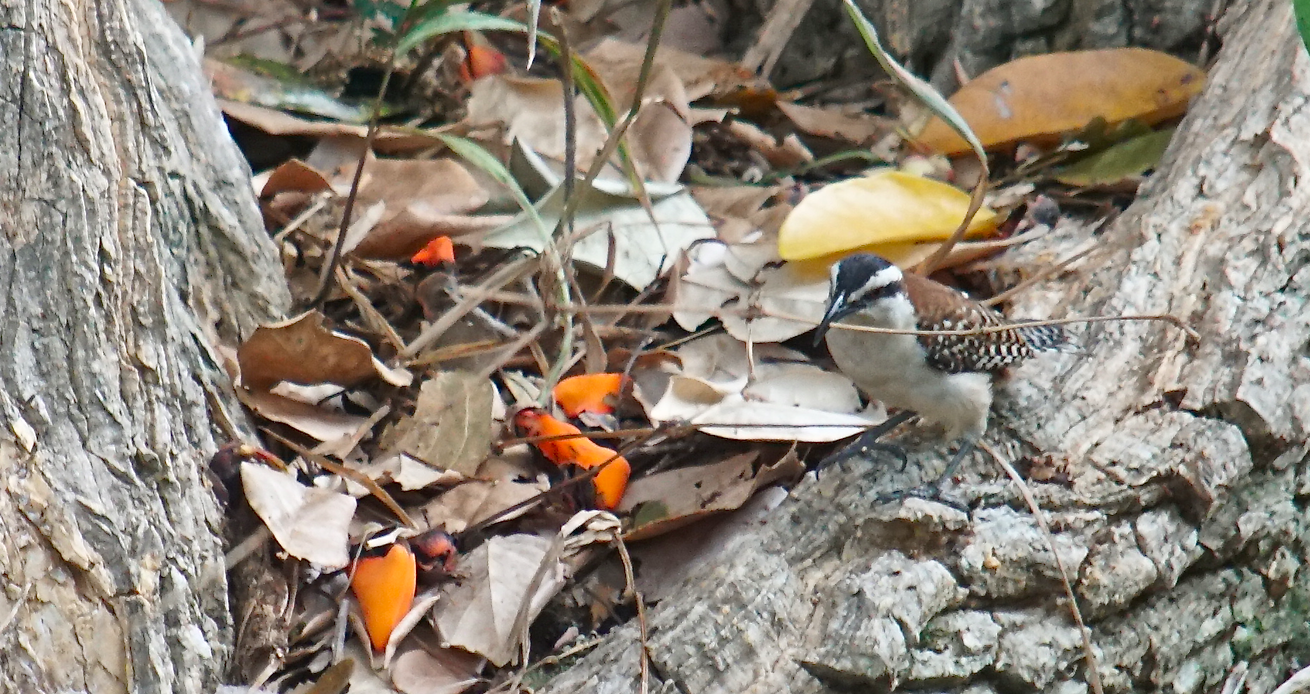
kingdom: Animalia
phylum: Chordata
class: Aves
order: Passeriformes
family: Troglodytidae
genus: Campylorhynchus
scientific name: Campylorhynchus rufinucha
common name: Rufous-naped wren
